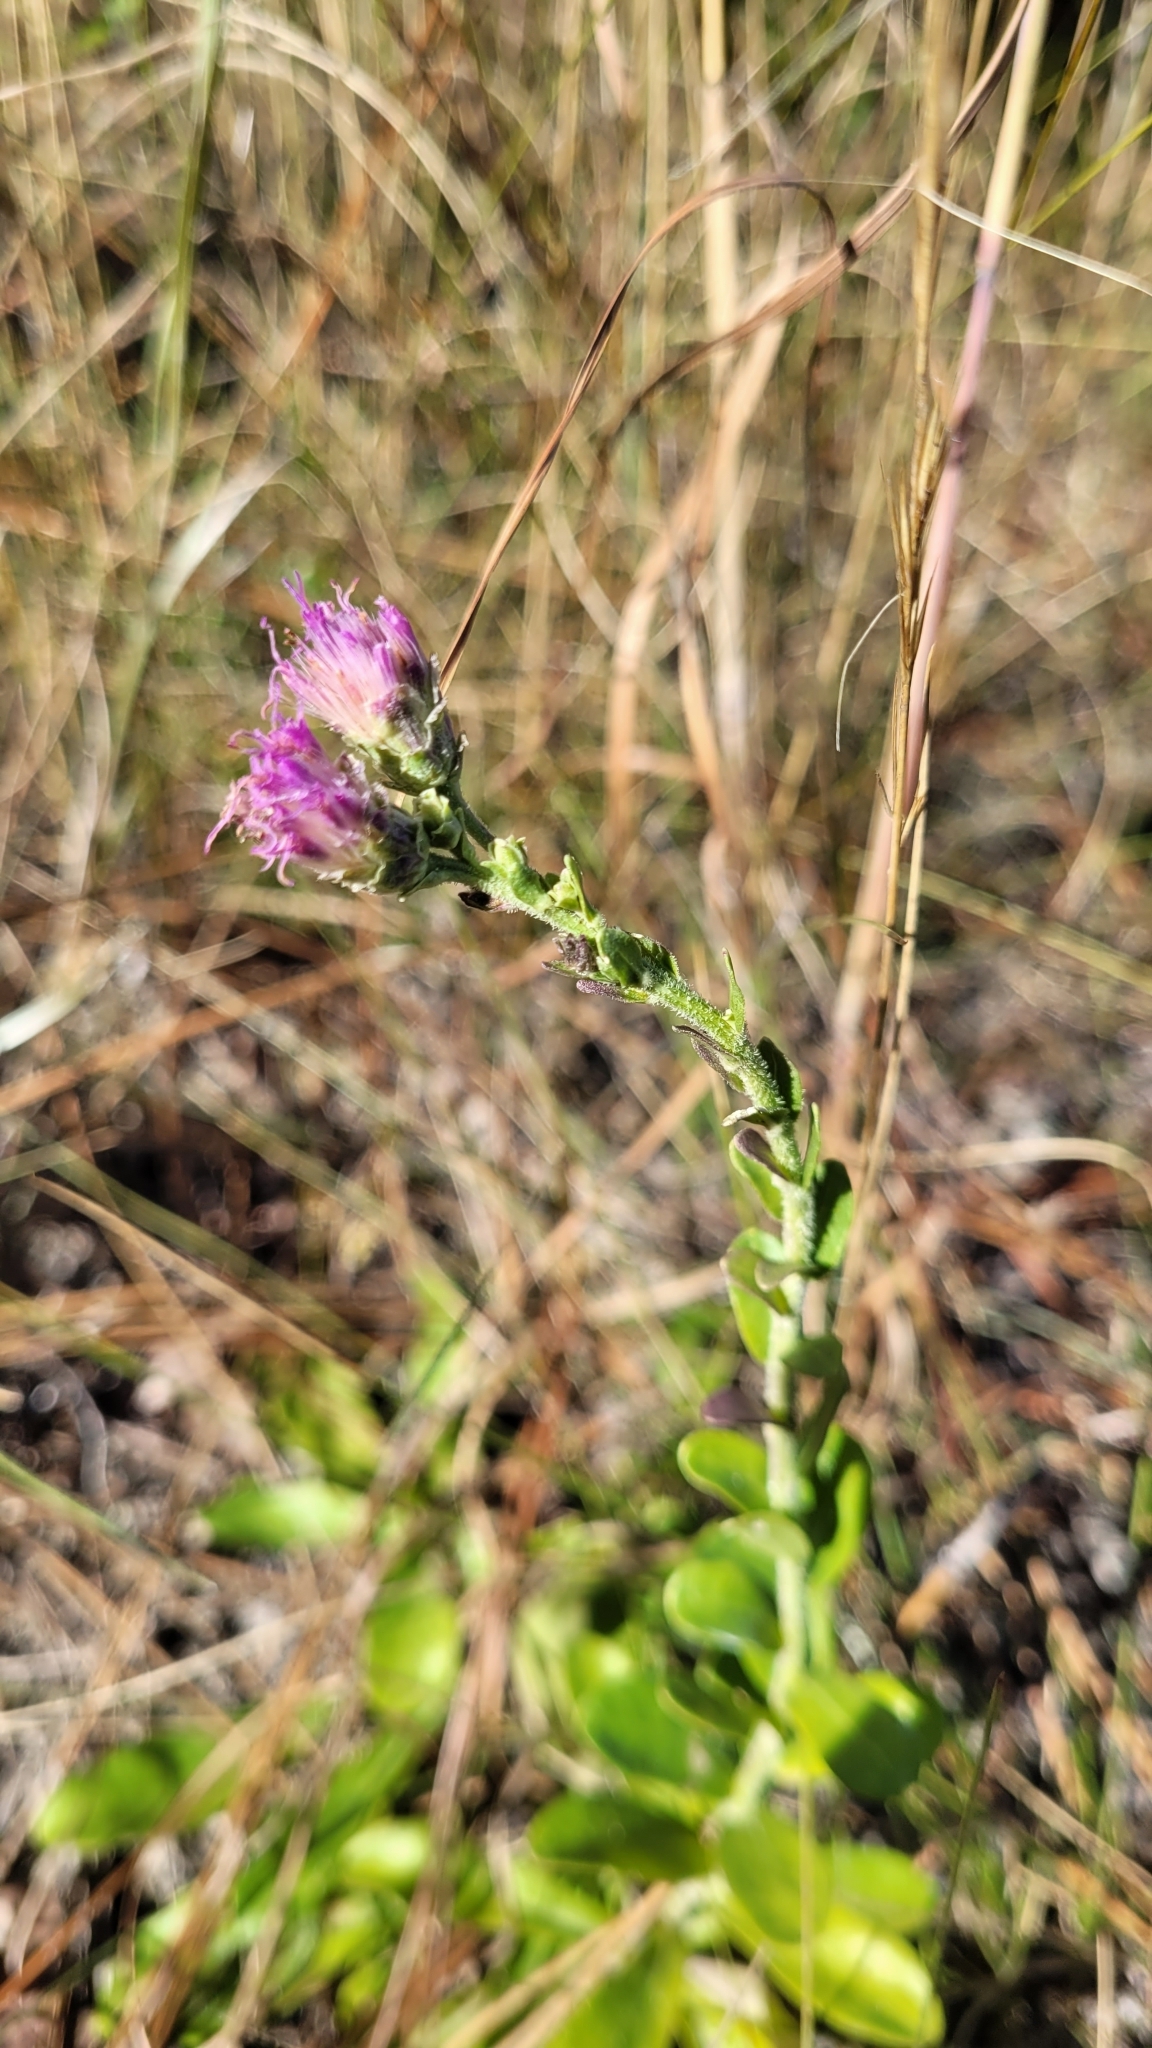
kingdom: Plantae
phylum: Tracheophyta
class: Magnoliopsida
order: Asterales
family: Asteraceae
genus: Carphephorus
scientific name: Carphephorus corymbosus
